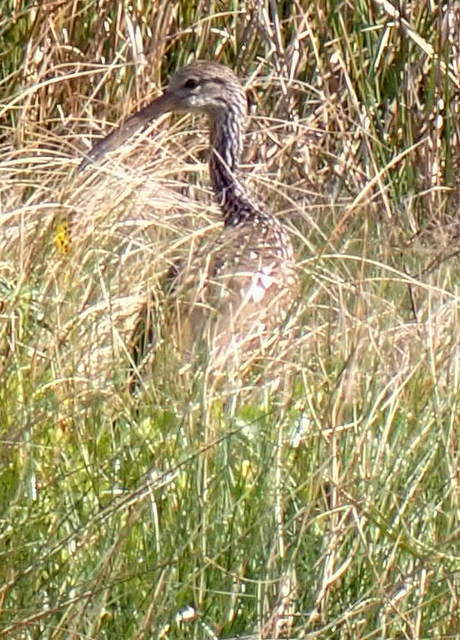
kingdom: Animalia
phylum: Chordata
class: Aves
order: Gruiformes
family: Aramidae
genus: Aramus
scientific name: Aramus guarauna
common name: Limpkin
